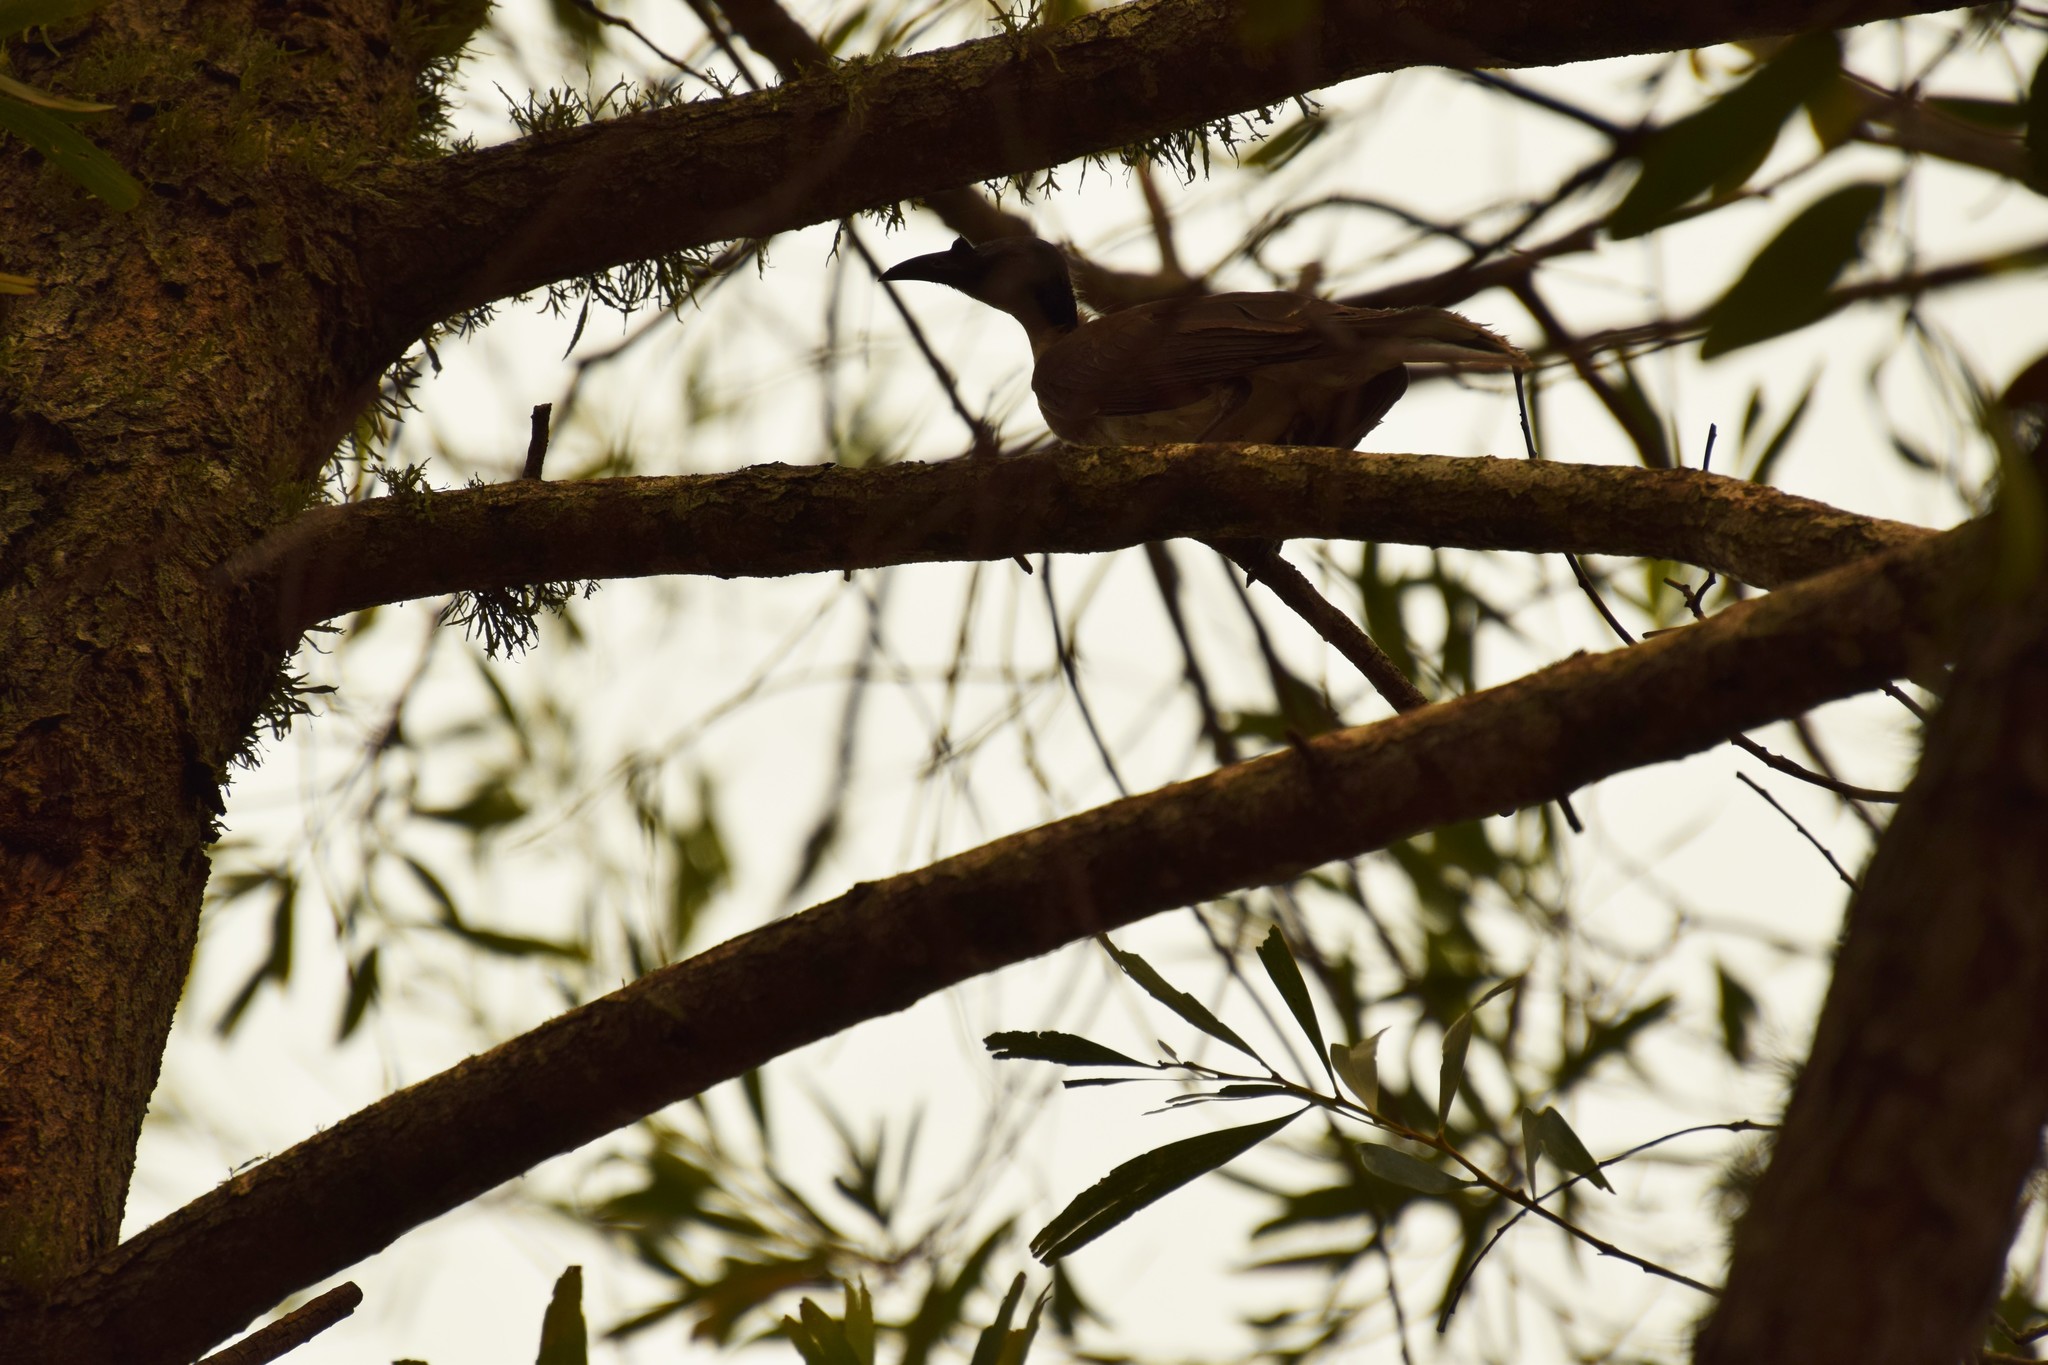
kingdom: Animalia
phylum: Chordata
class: Aves
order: Passeriformes
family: Meliphagidae
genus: Philemon
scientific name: Philemon corniculatus
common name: Noisy friarbird
